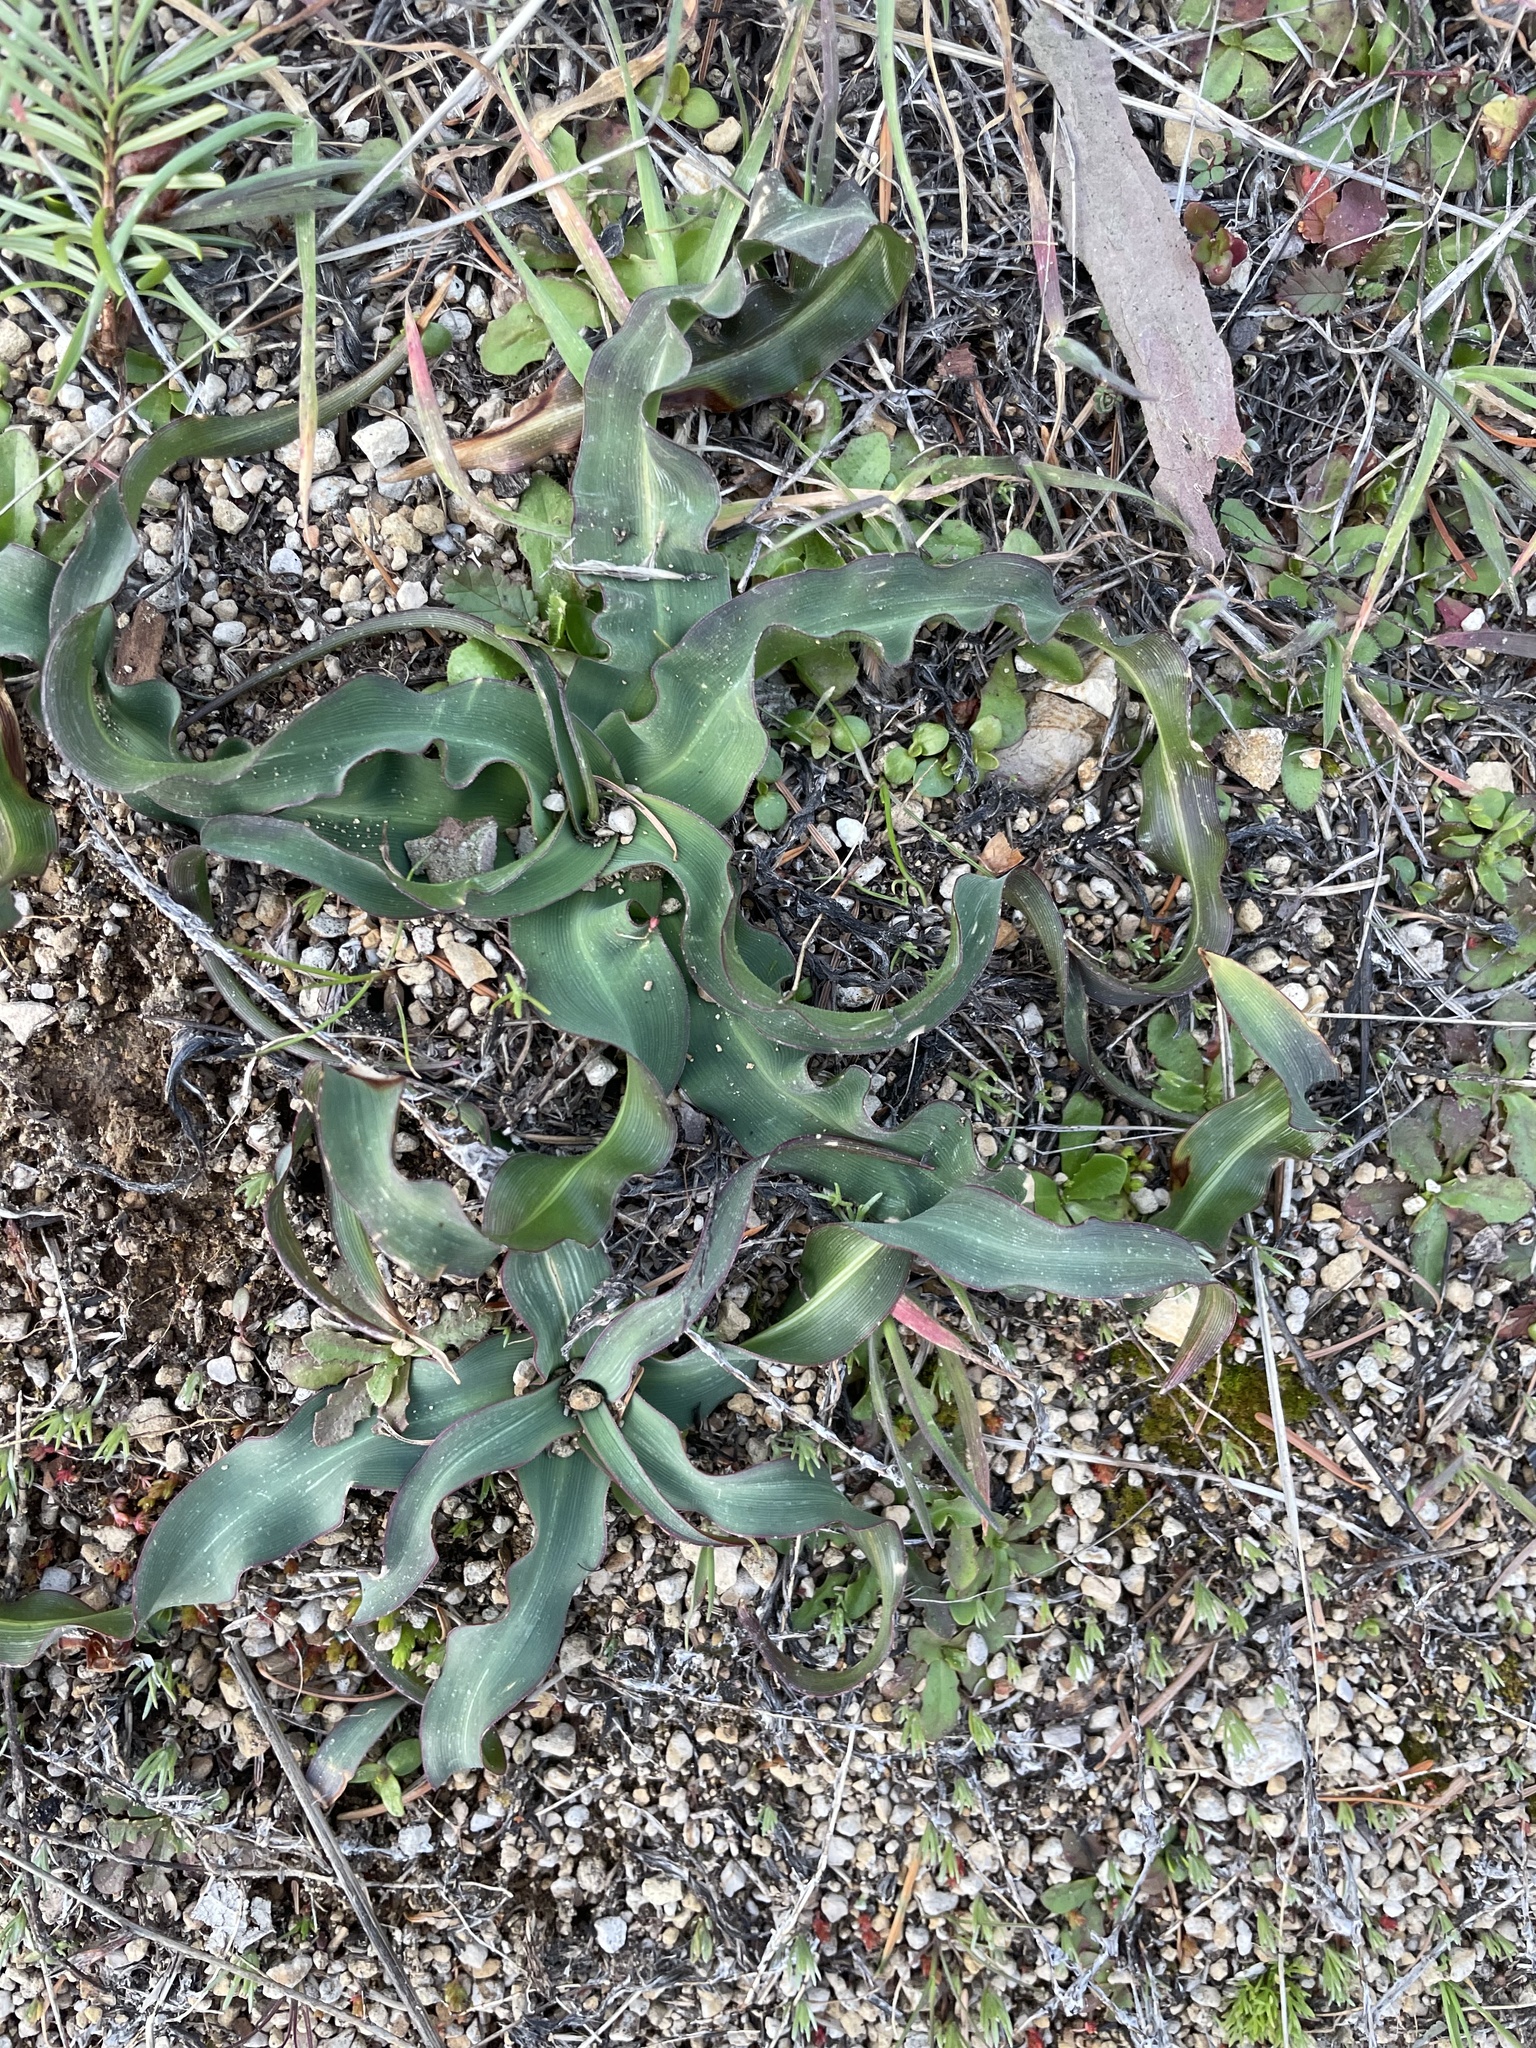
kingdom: Plantae
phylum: Tracheophyta
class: Liliopsida
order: Asparagales
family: Asparagaceae
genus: Chlorogalum
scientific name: Chlorogalum pomeridianum
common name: Amole
